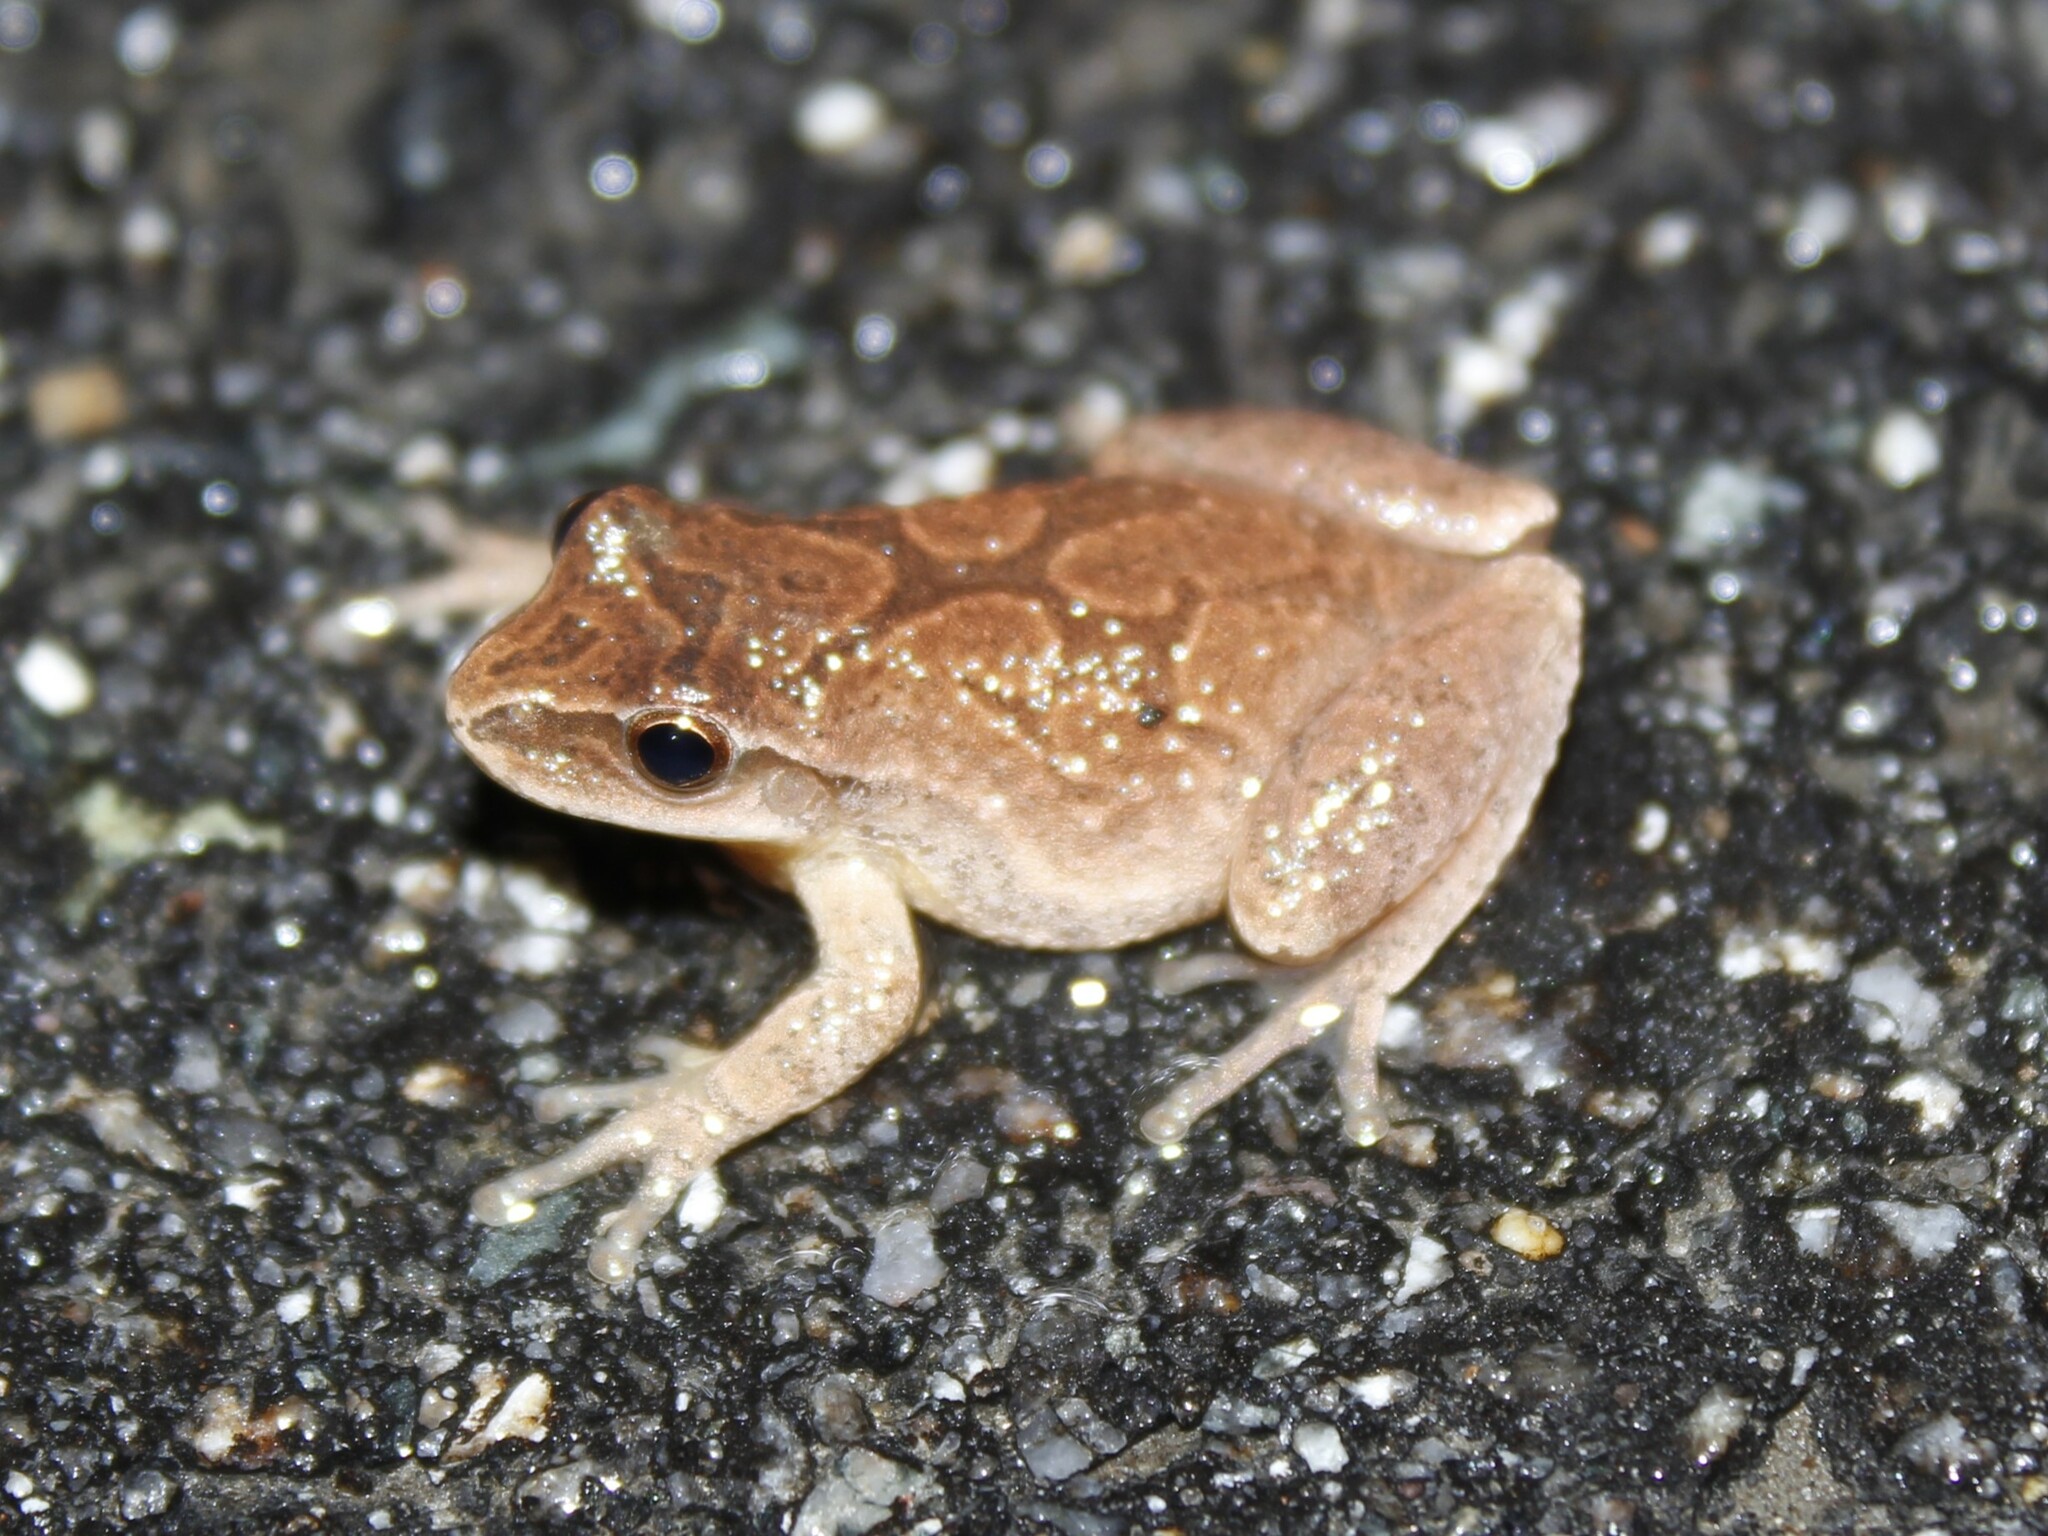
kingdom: Animalia
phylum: Chordata
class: Amphibia
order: Anura
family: Hylidae
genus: Pseudacris
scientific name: Pseudacris crucifer
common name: Spring peeper
